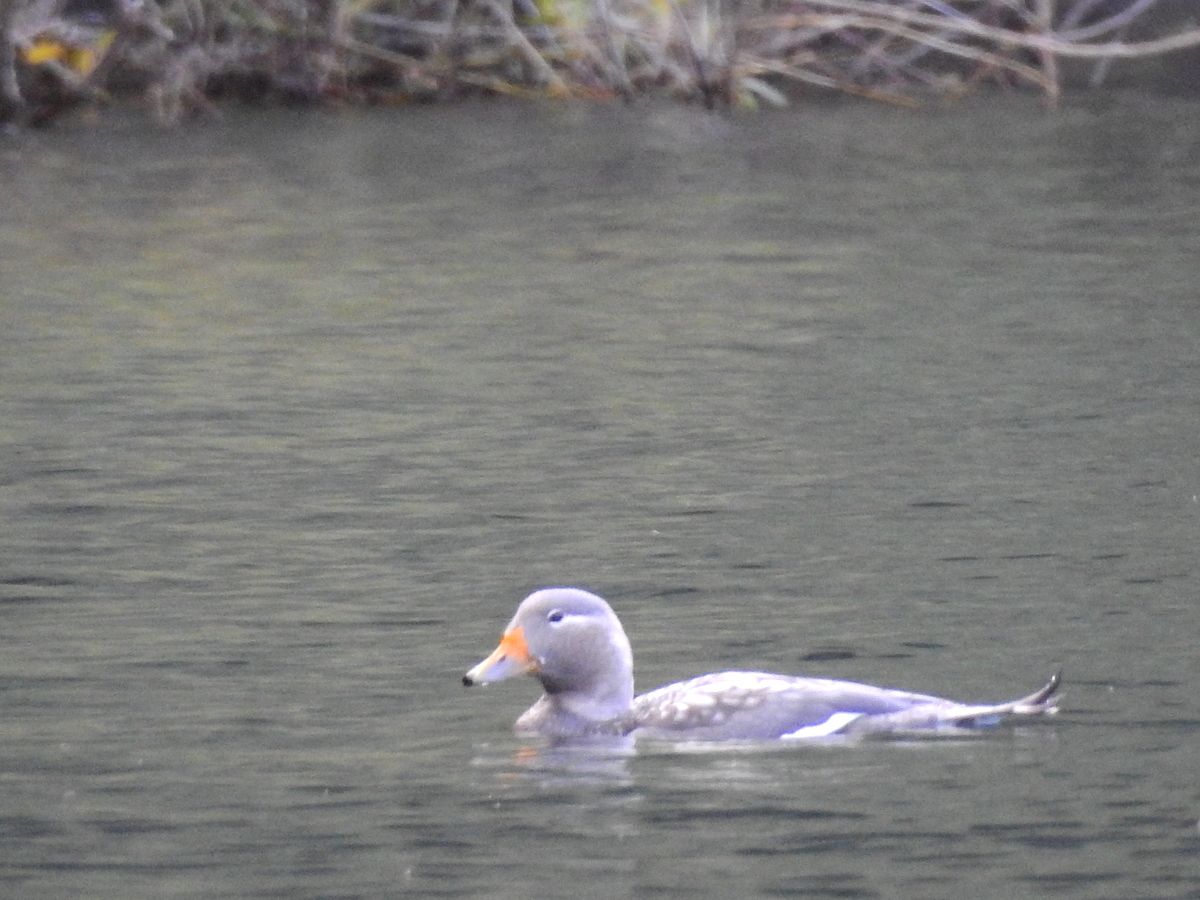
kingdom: Animalia
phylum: Chordata
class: Aves
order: Anseriformes
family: Anatidae
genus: Tachyeres
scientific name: Tachyeres patachonicus
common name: Flying steamer duck
